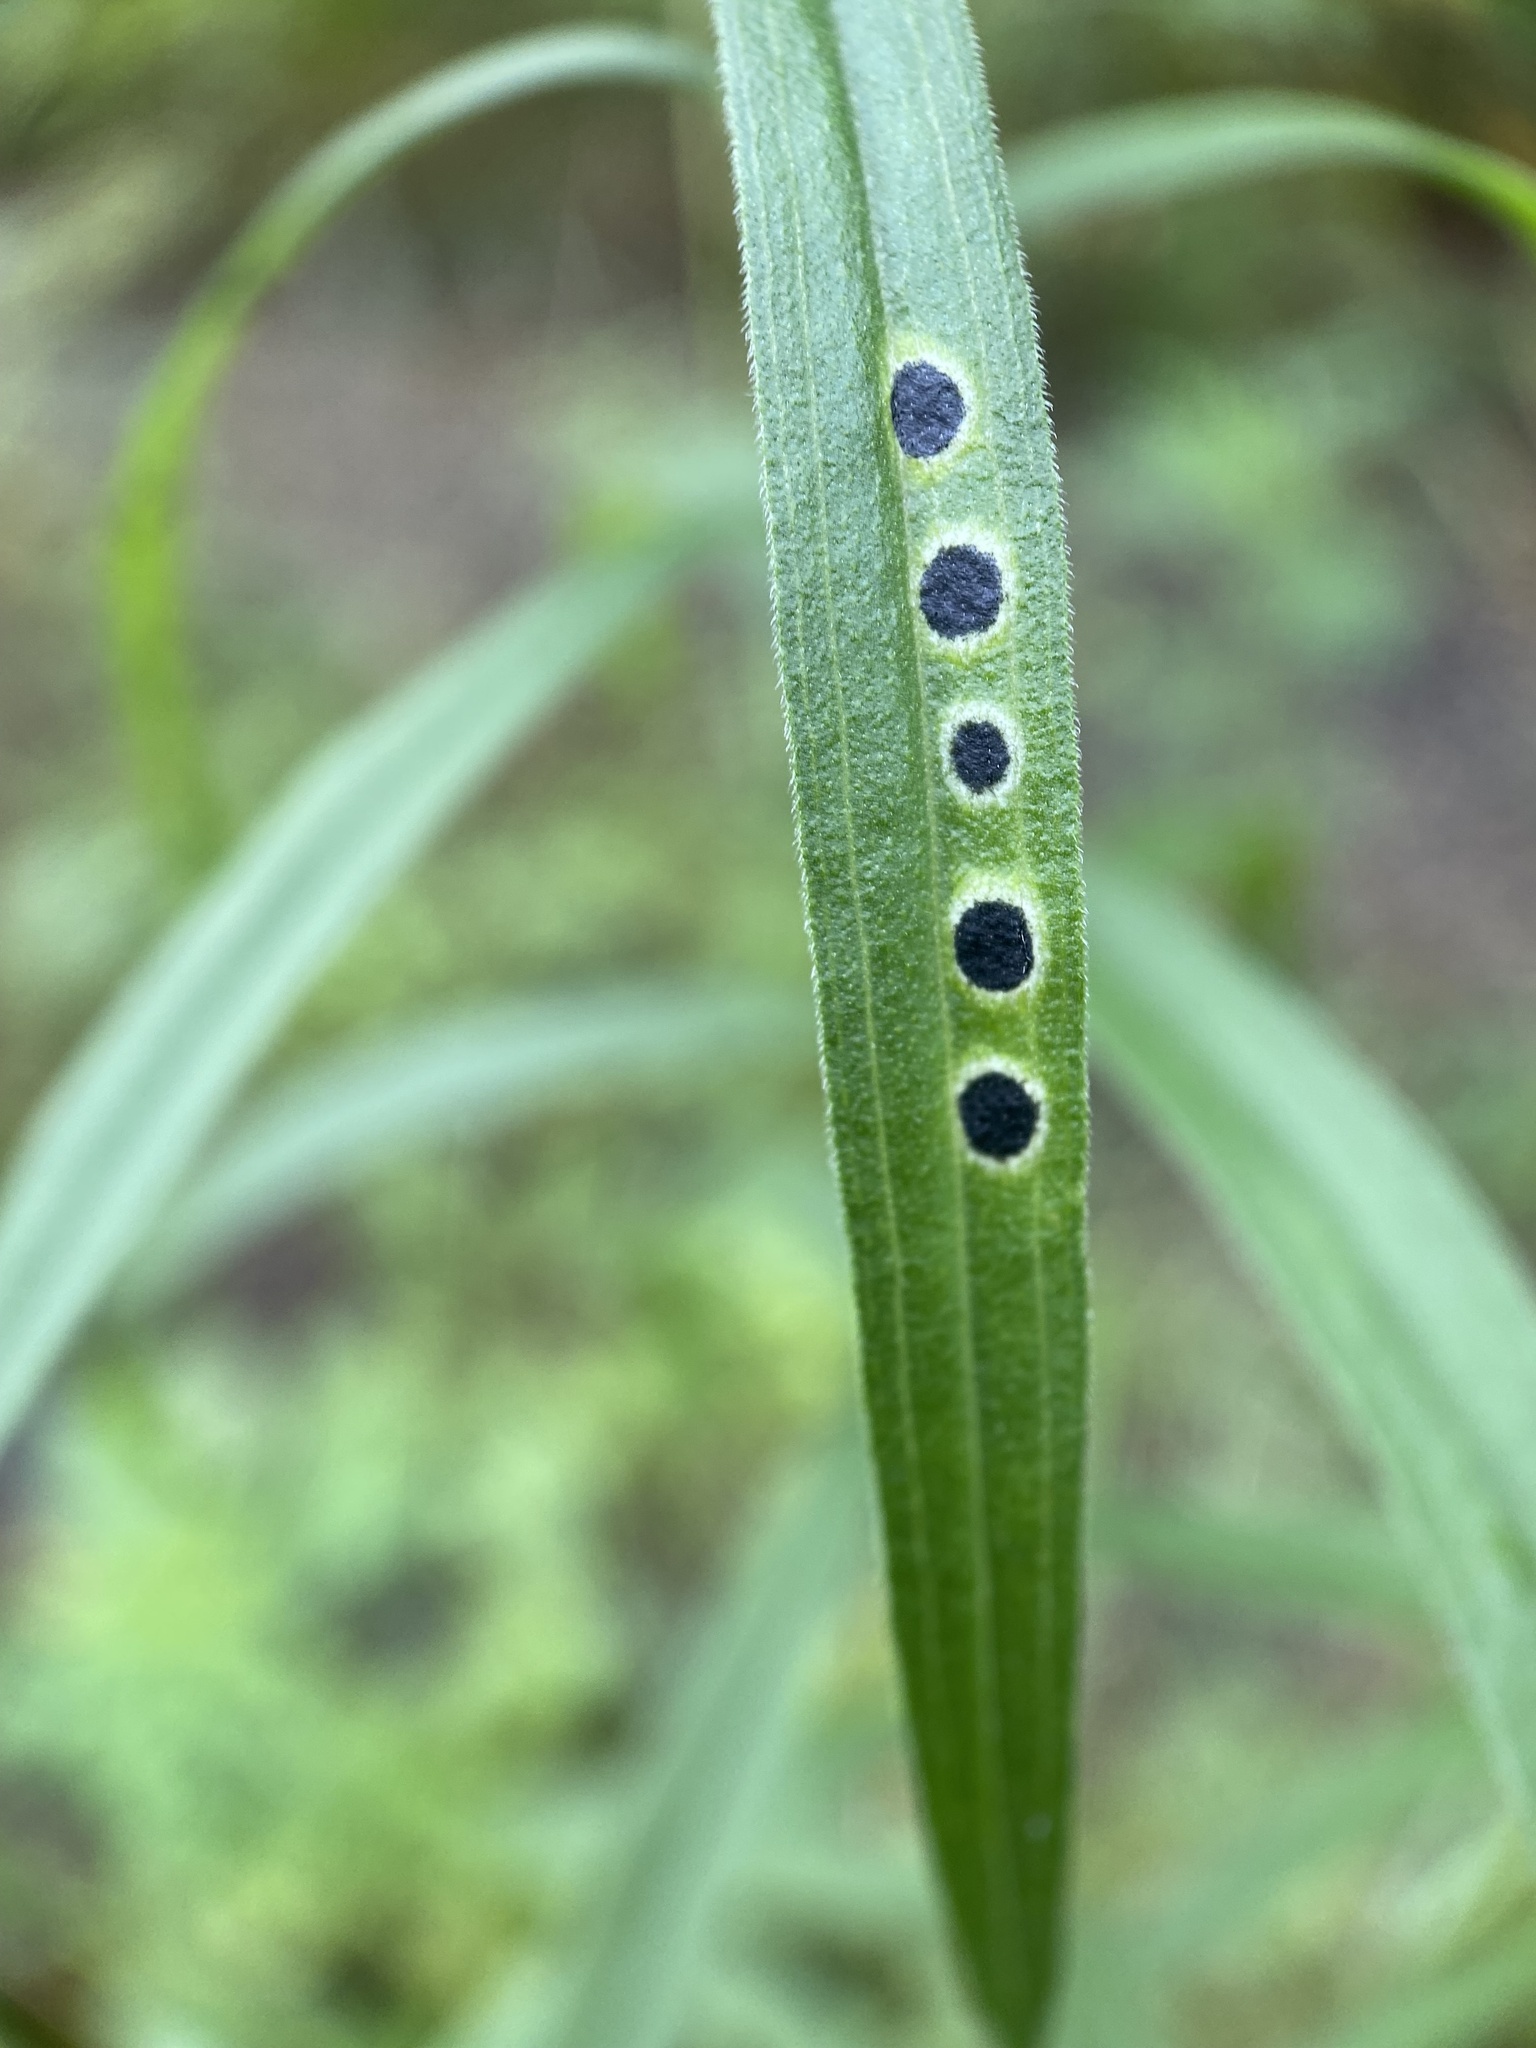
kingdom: Animalia
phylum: Arthropoda
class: Insecta
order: Diptera
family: Cecidomyiidae
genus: Asteromyia
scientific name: Asteromyia euthamiae
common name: Euthamia leaf gall midge
